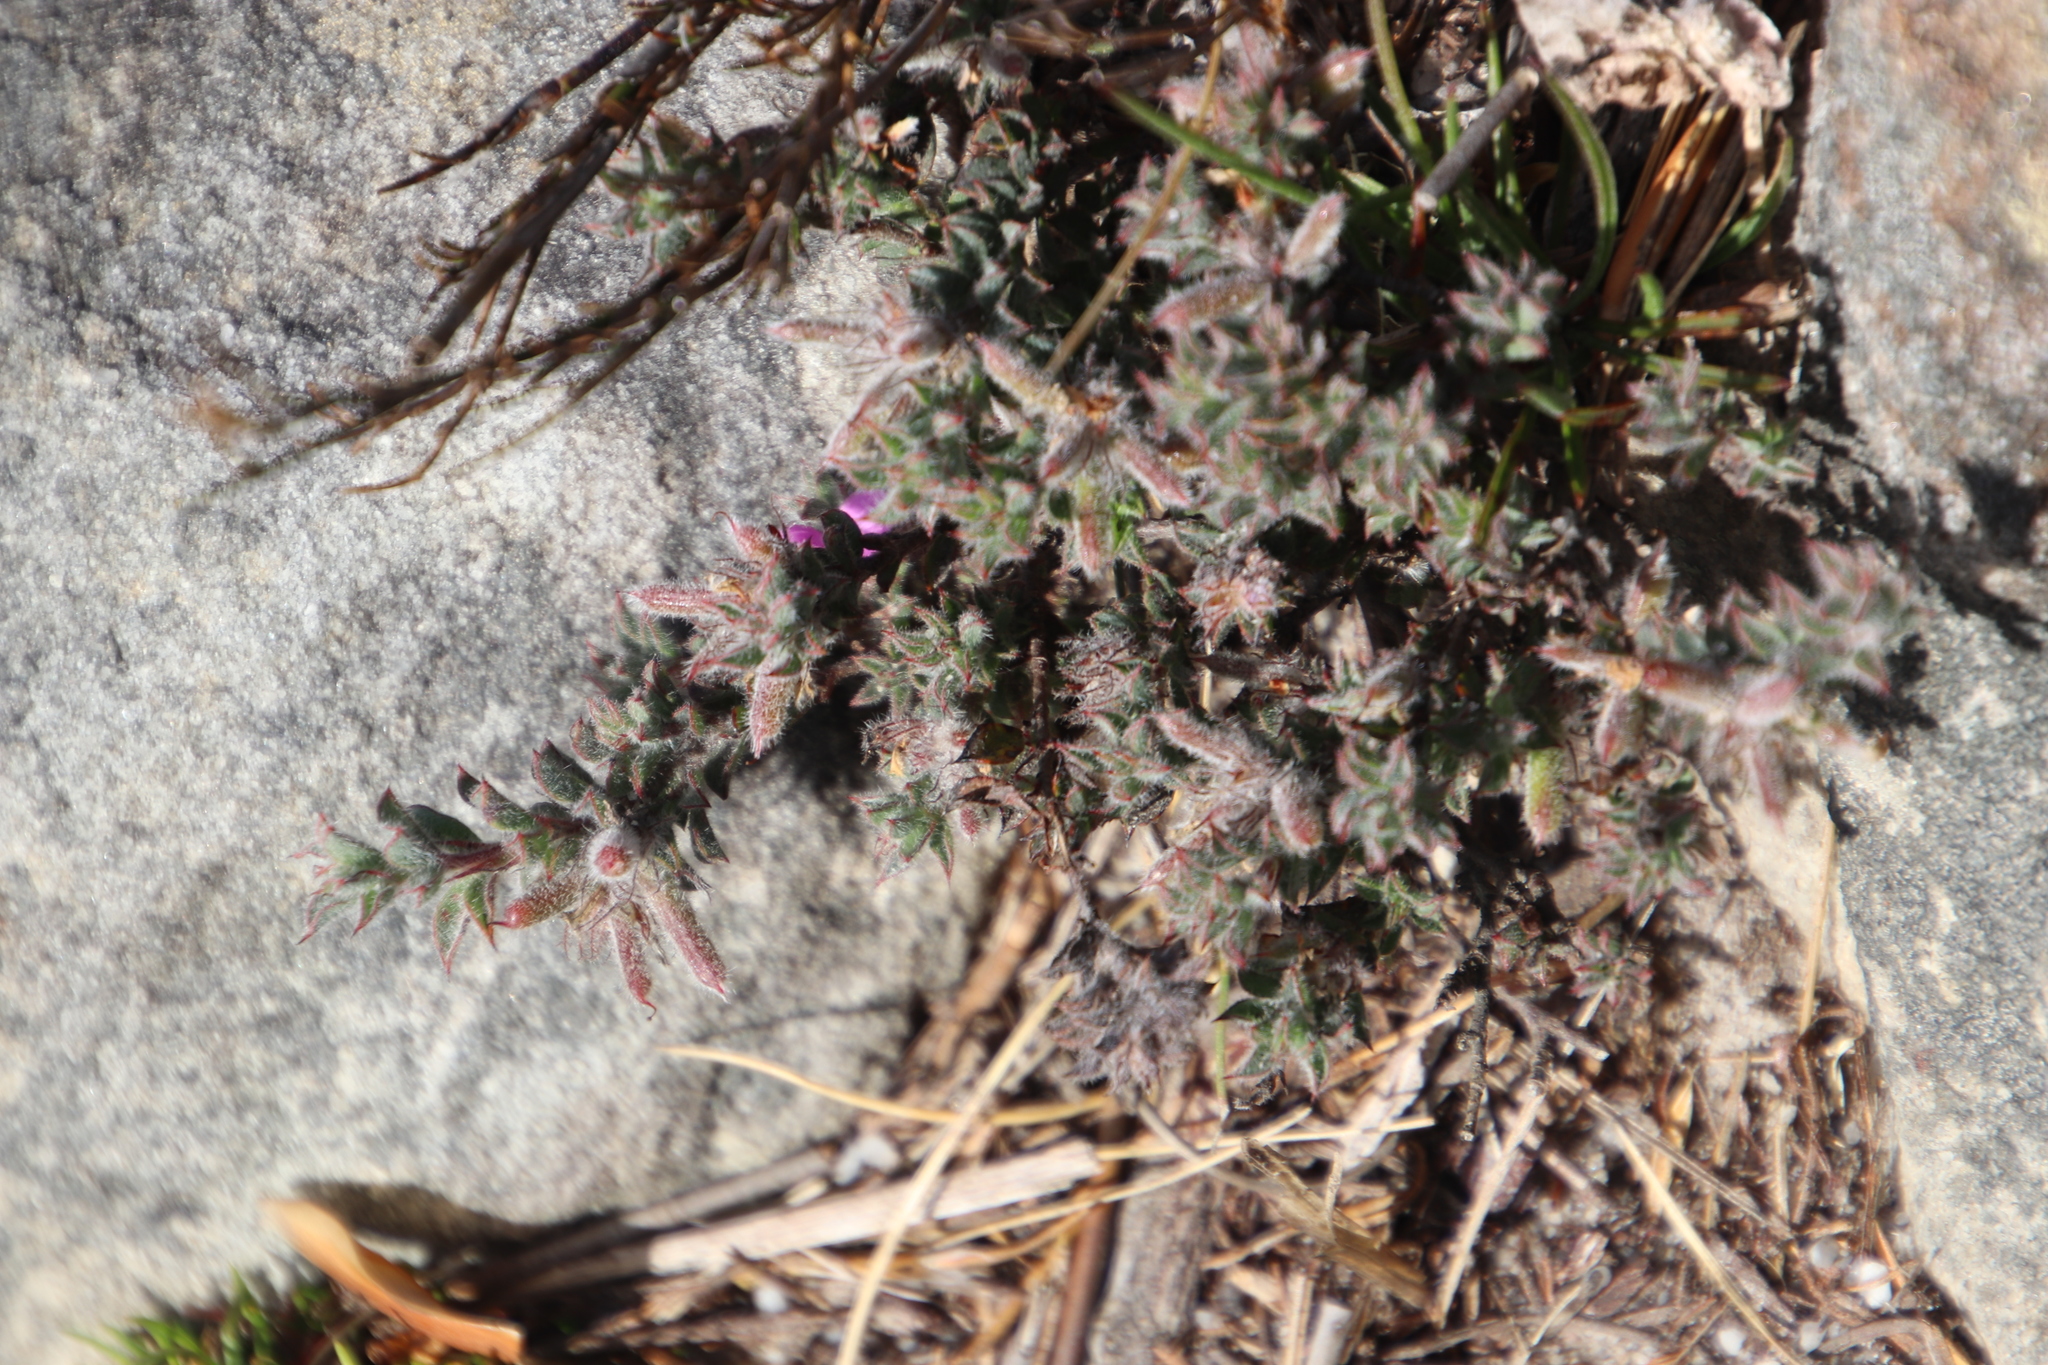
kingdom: Plantae
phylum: Tracheophyta
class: Magnoliopsida
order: Fabales
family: Fabaceae
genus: Indigofera
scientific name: Indigofera glomerata
